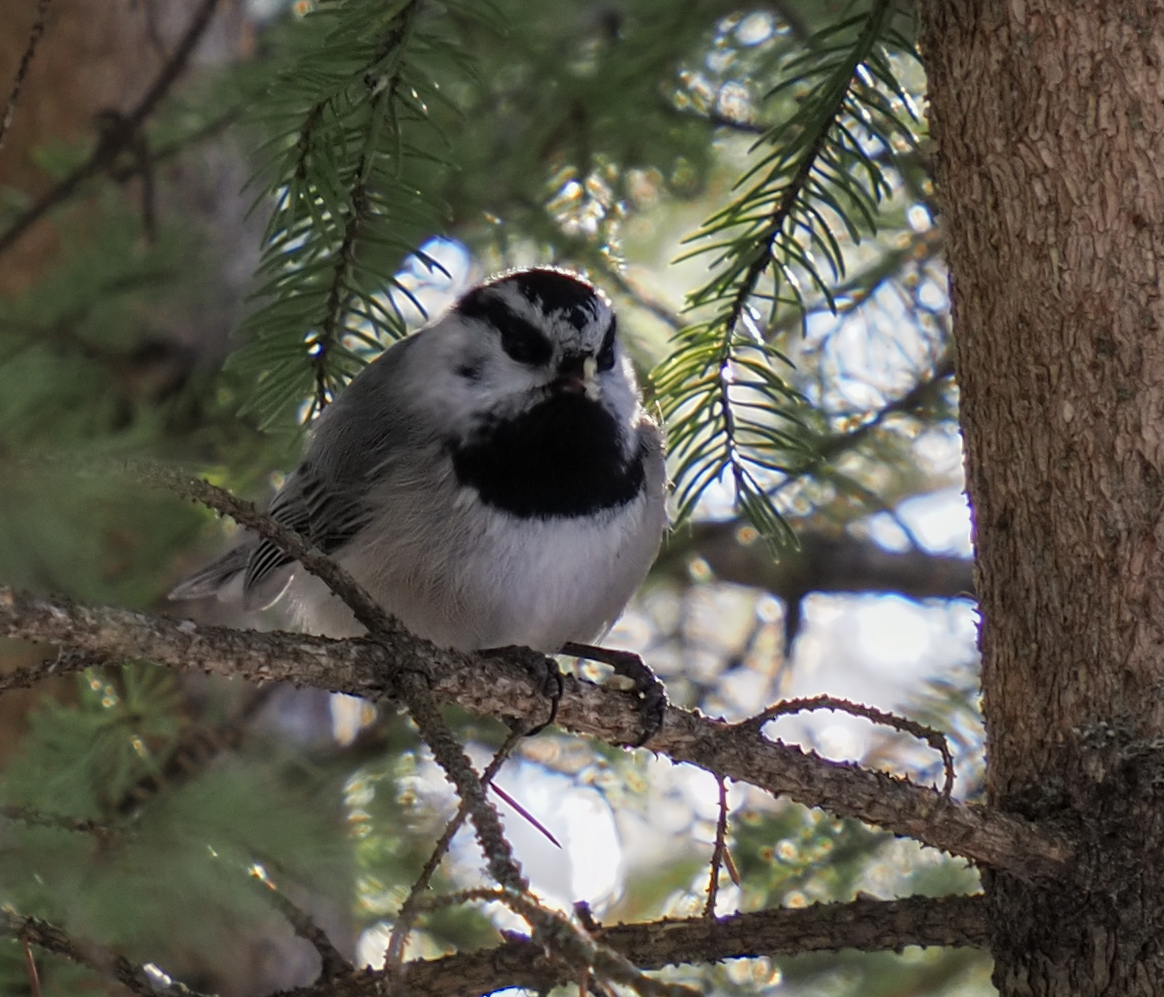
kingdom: Animalia
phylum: Chordata
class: Aves
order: Passeriformes
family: Paridae
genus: Poecile
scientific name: Poecile gambeli
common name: Mountain chickadee
